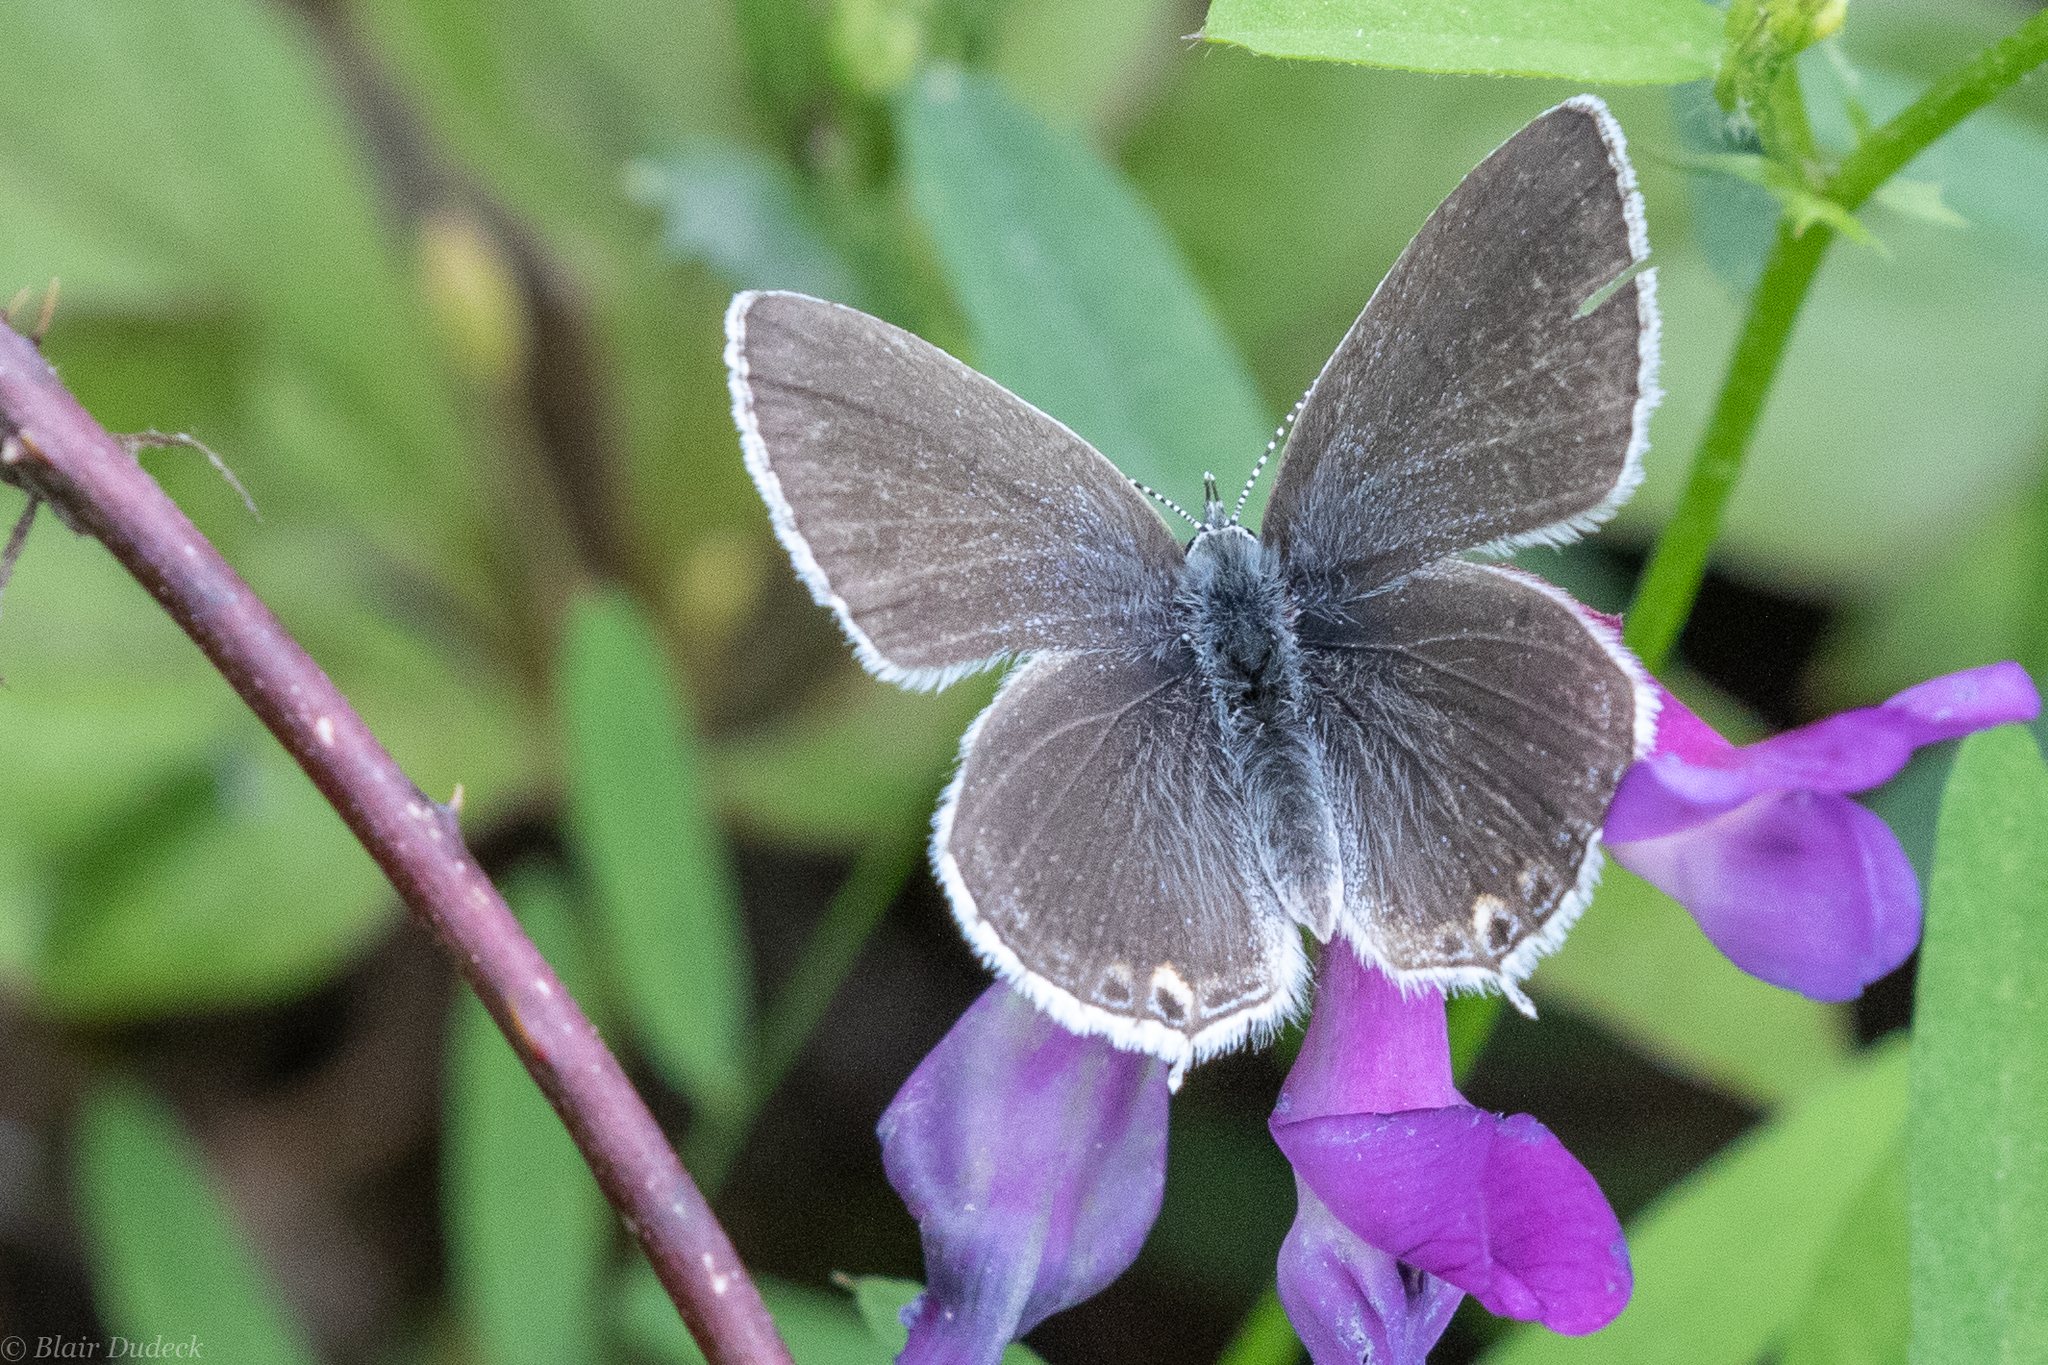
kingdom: Animalia
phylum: Arthropoda
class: Insecta
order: Lepidoptera
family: Lycaenidae
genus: Elkalyce
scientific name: Elkalyce amyntula
